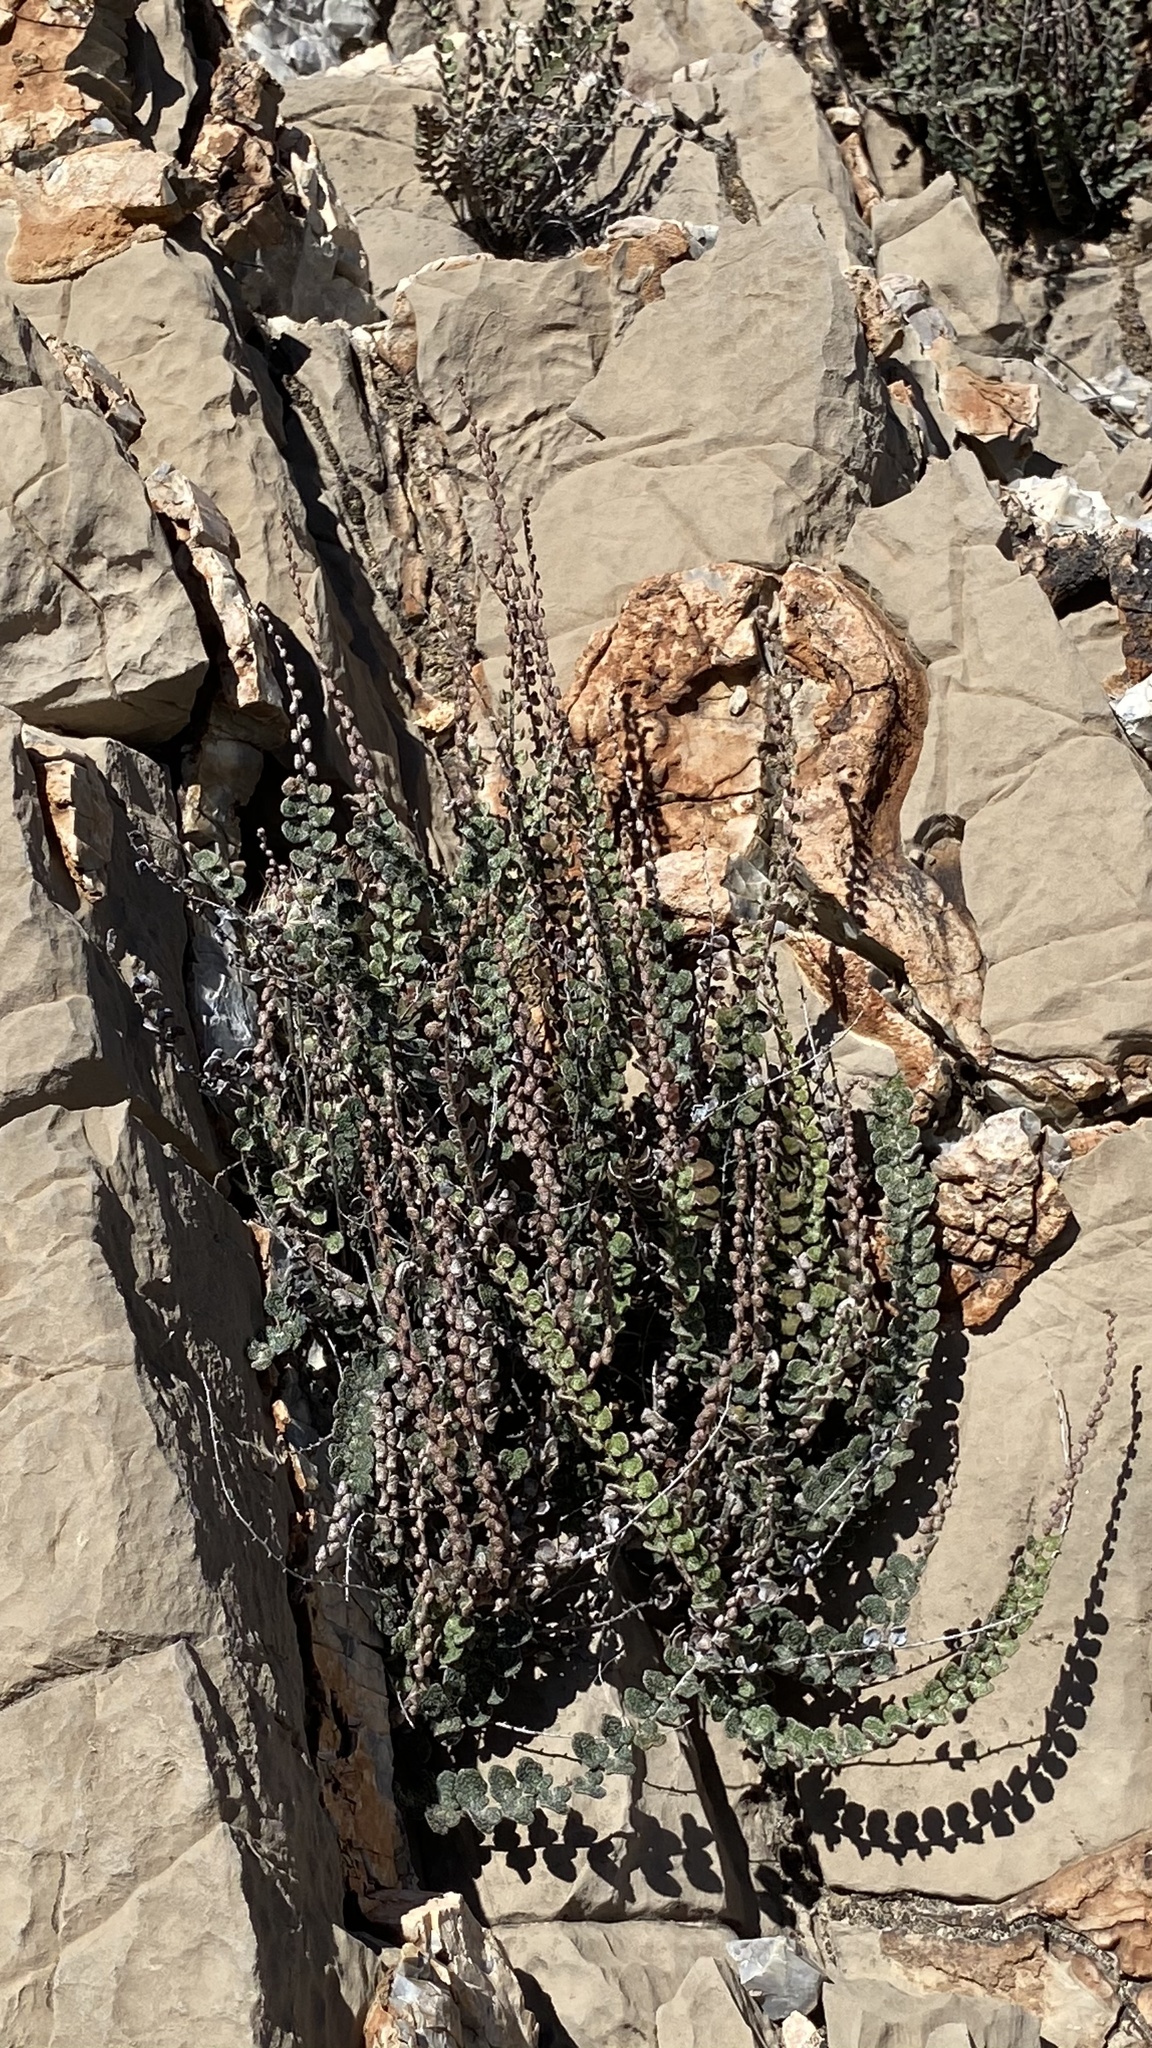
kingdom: Plantae
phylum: Tracheophyta
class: Polypodiopsida
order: Polypodiales
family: Pteridaceae
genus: Astrolepis
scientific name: Astrolepis cochisensis
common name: Scaly cloak fern
